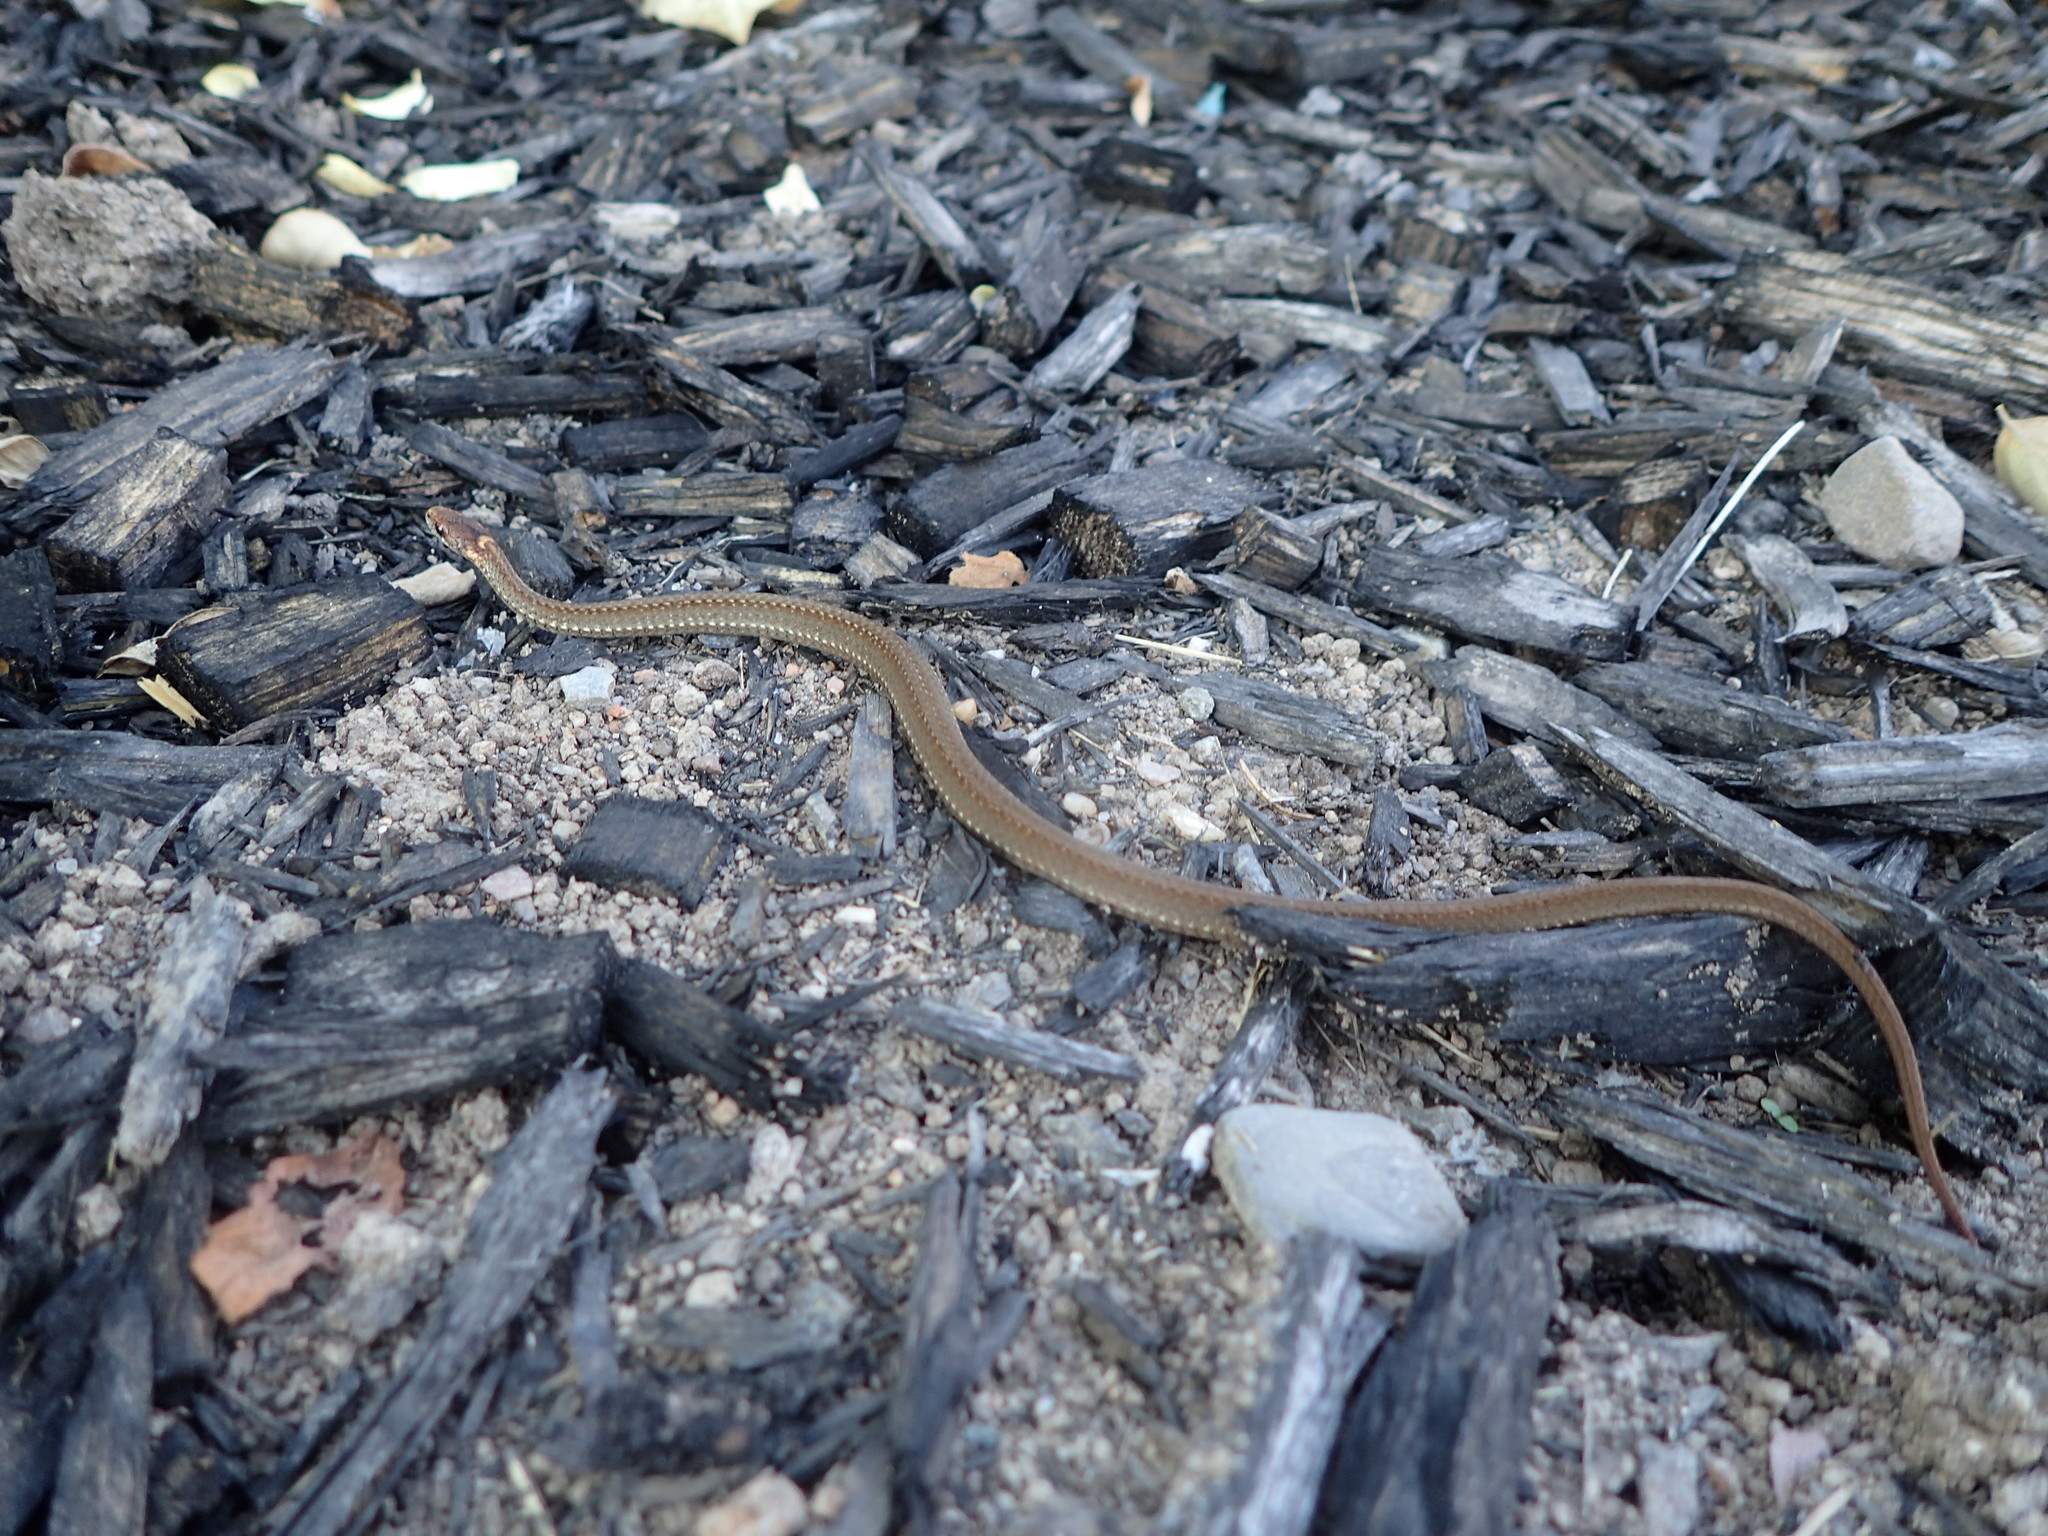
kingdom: Animalia
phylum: Chordata
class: Squamata
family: Colubridae
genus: Storeria
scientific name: Storeria occipitomaculata
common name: Redbelly snake
